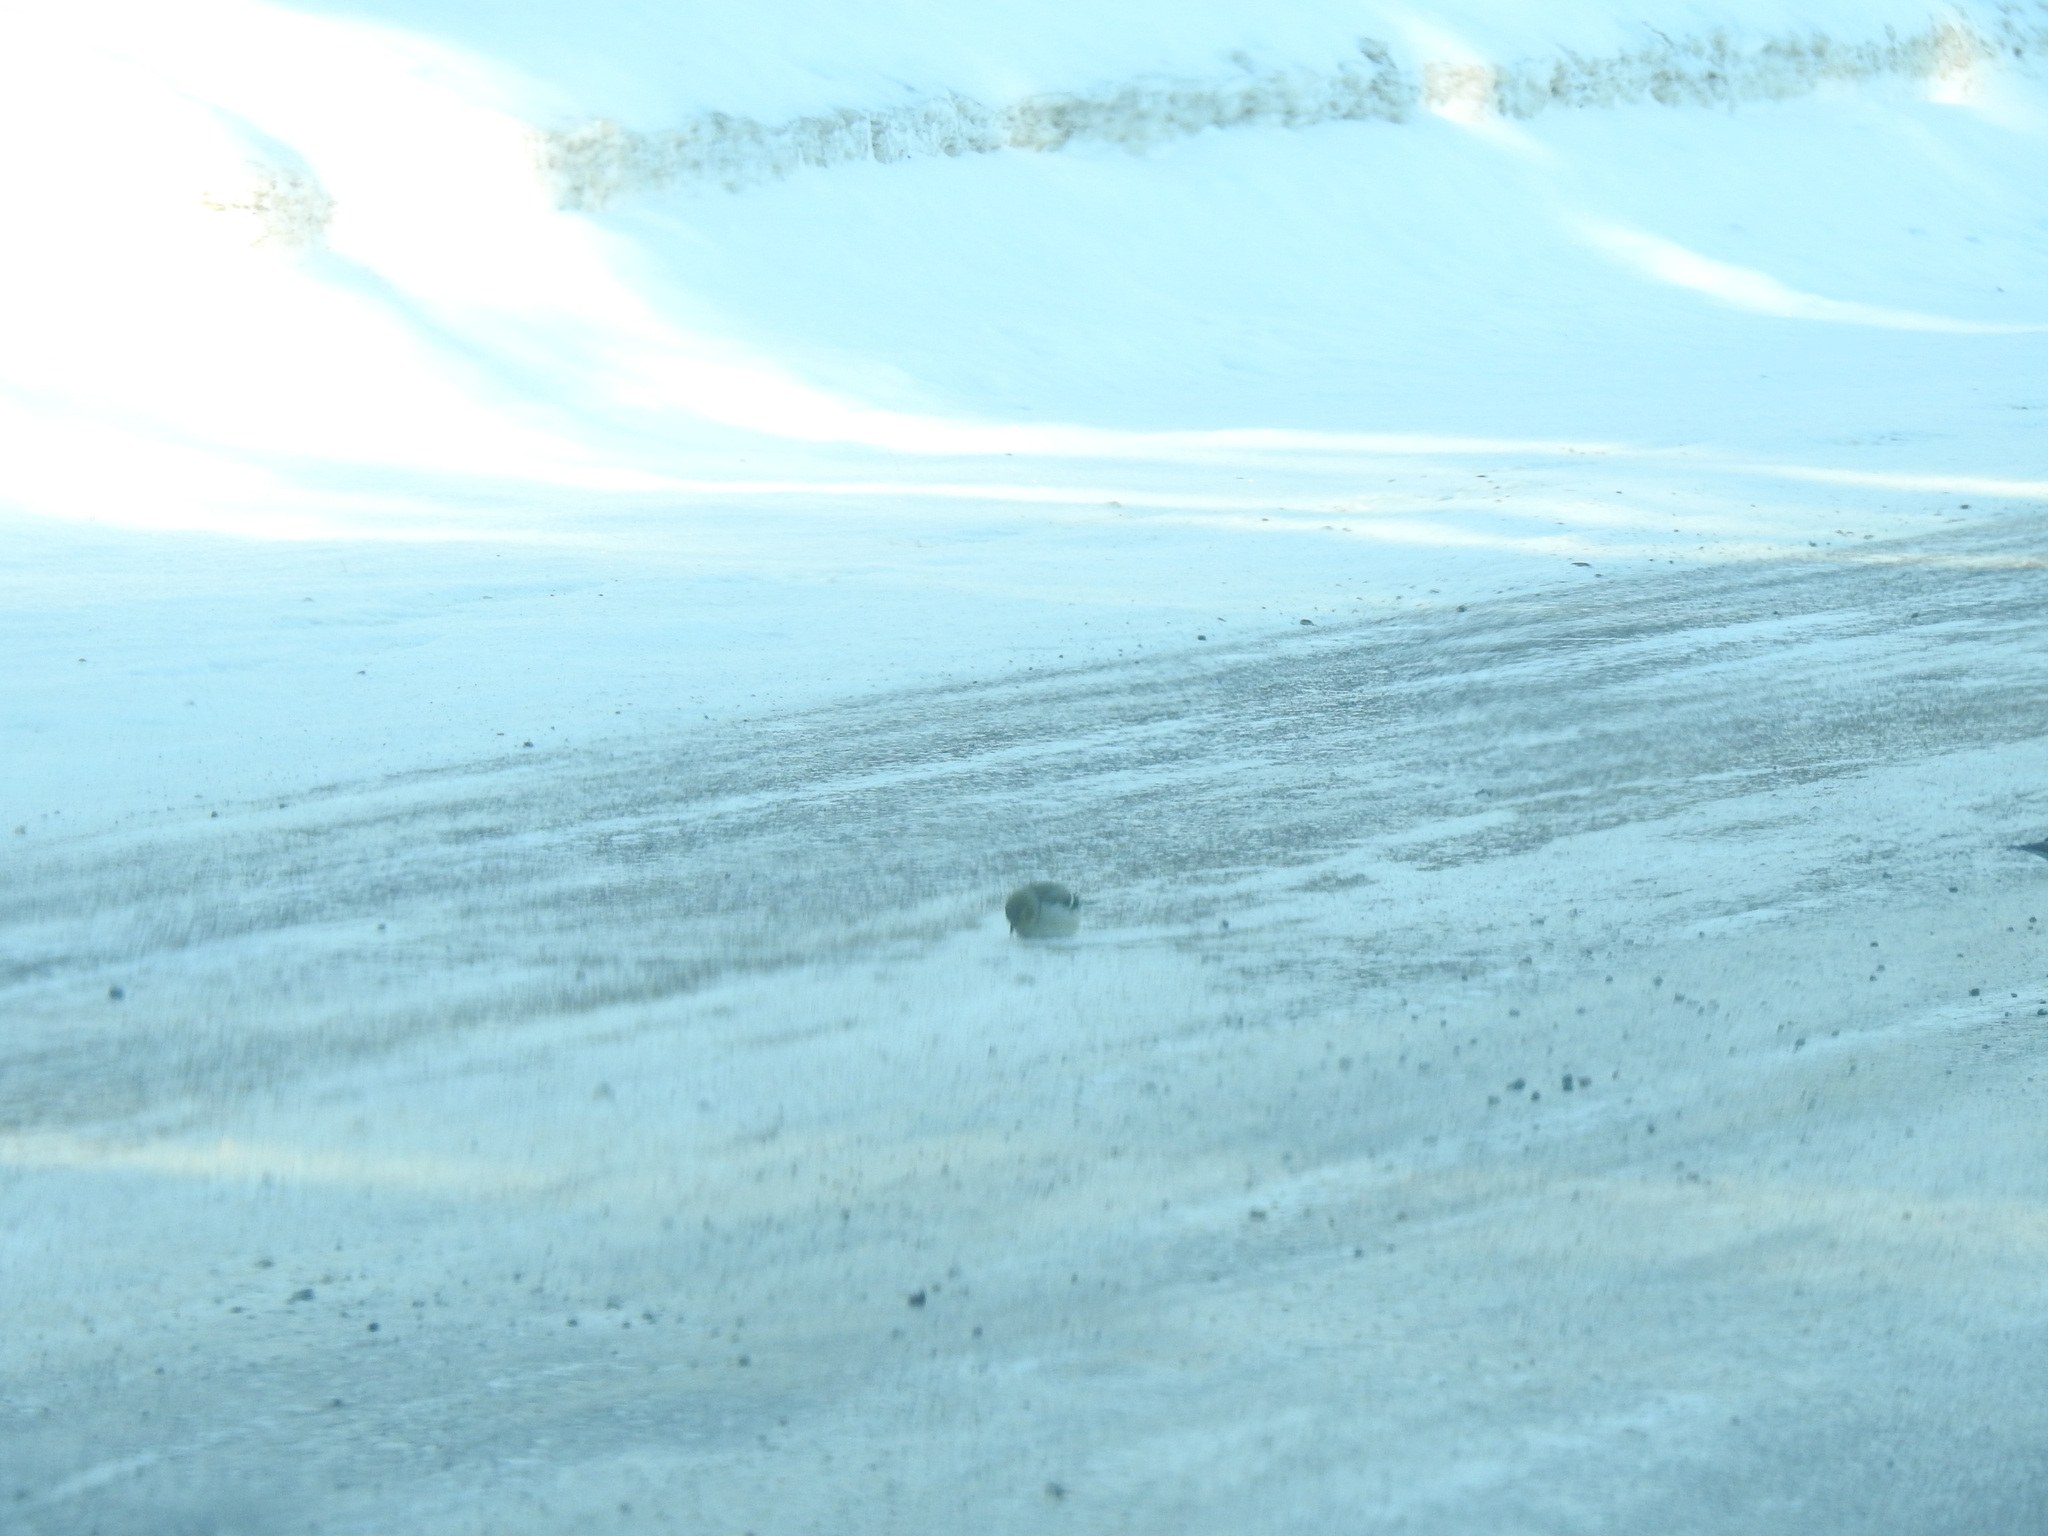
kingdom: Animalia
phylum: Chordata
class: Aves
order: Passeriformes
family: Fringillidae
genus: Spinus
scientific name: Spinus tristis
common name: American goldfinch
